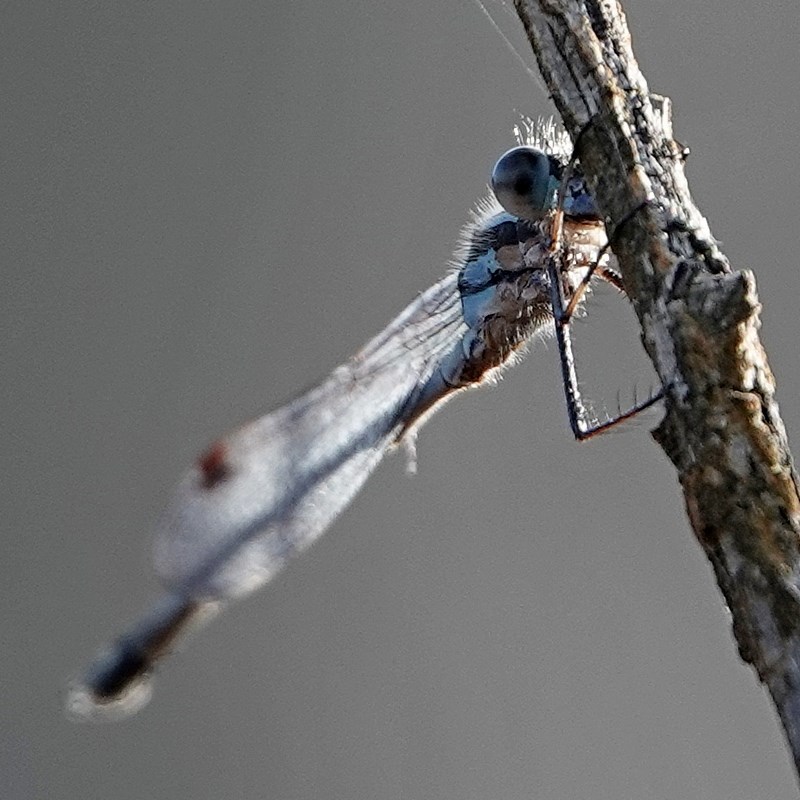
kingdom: Animalia
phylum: Arthropoda
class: Insecta
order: Odonata
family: Lestidae
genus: Austrolestes
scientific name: Austrolestes annulosus
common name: Blue ringtail
